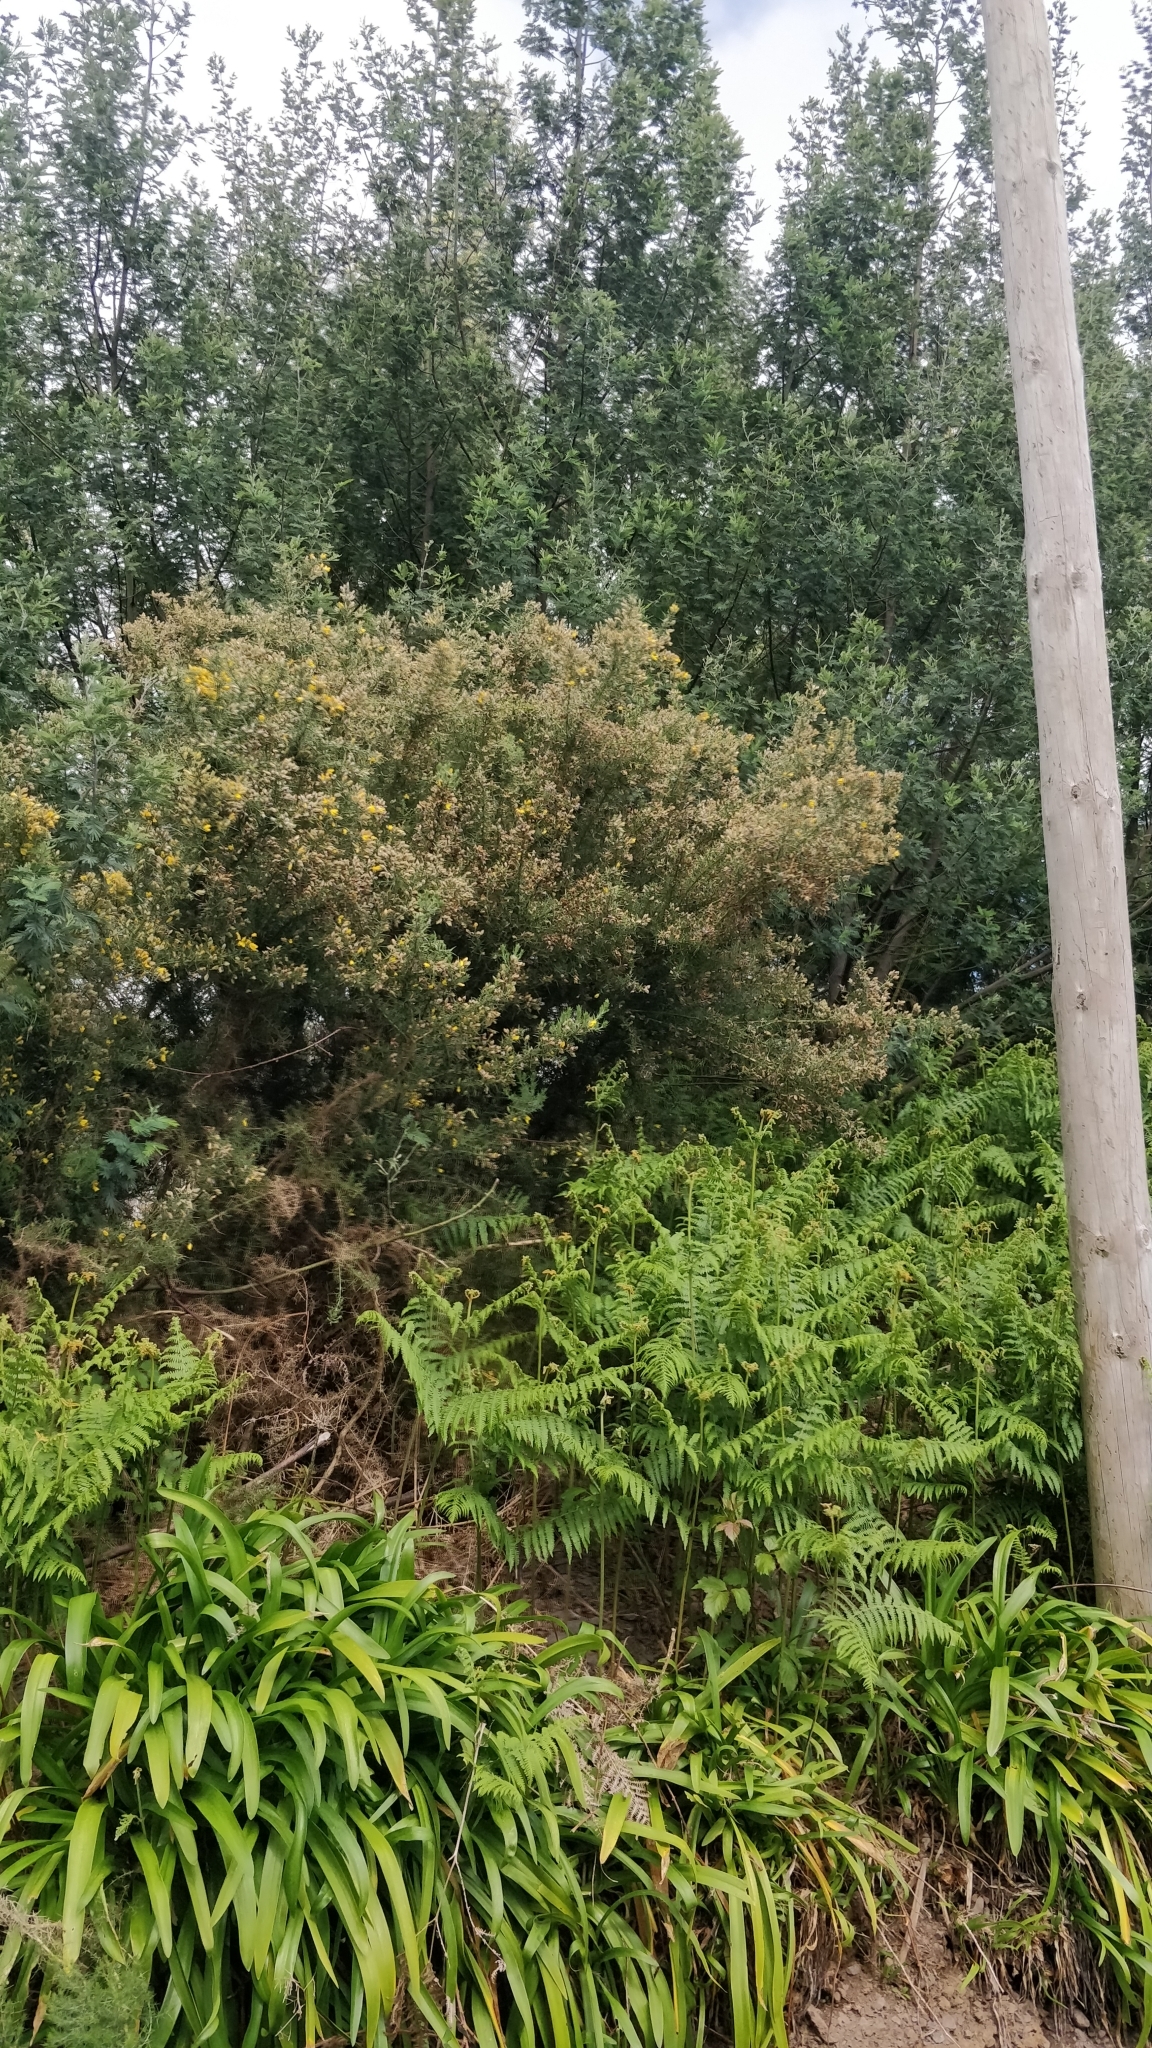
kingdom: Plantae
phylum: Tracheophyta
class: Magnoliopsida
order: Fabales
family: Fabaceae
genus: Ulex
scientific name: Ulex europaeus
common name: Common gorse
